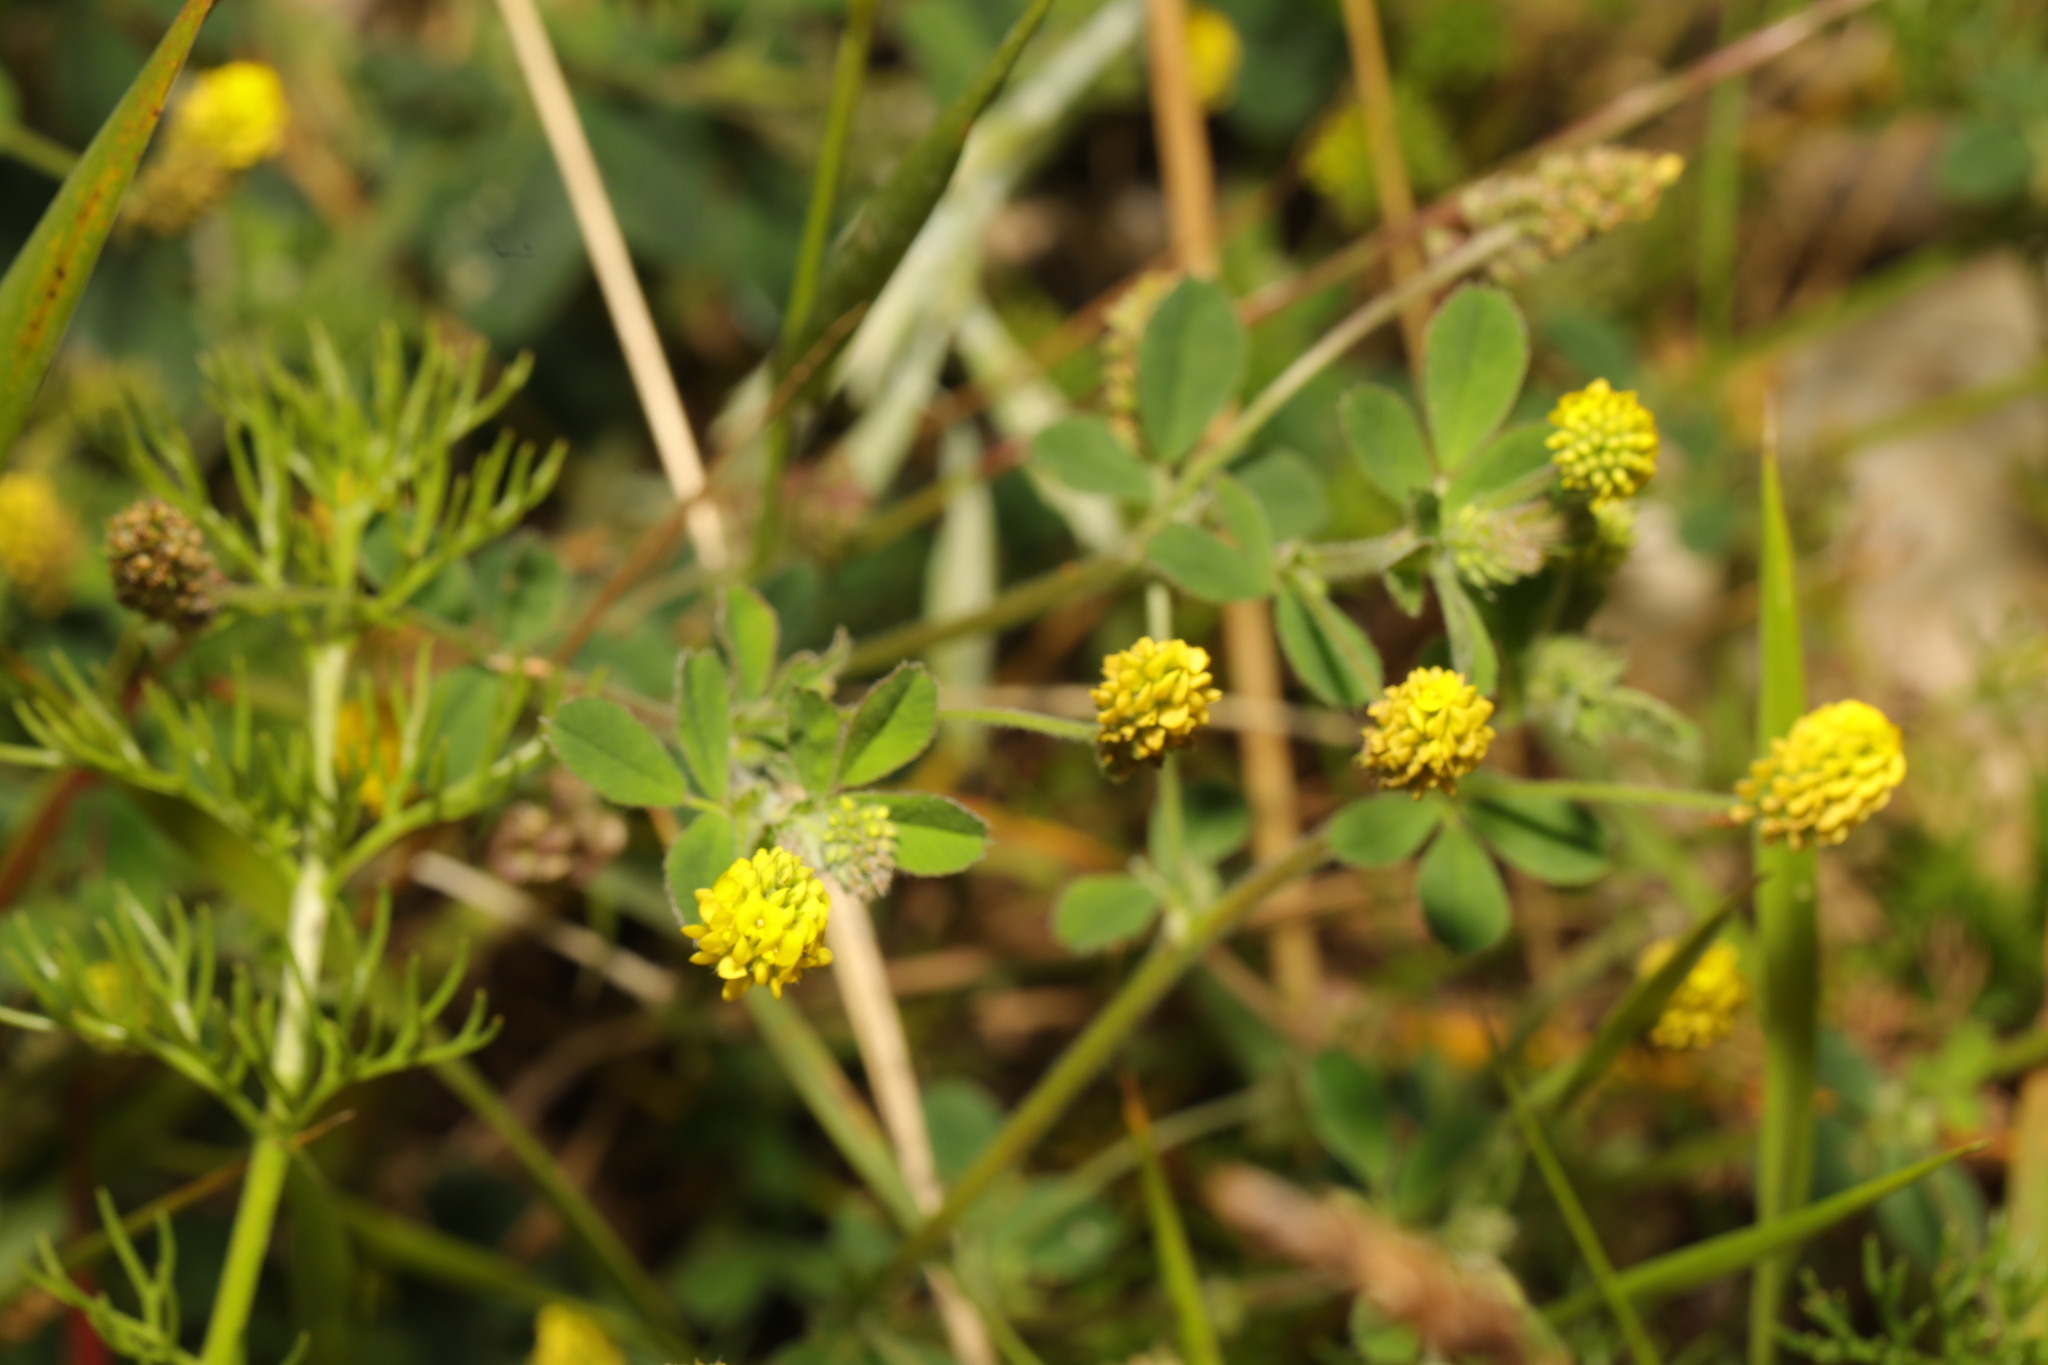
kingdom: Plantae
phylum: Tracheophyta
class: Magnoliopsida
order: Fabales
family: Fabaceae
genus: Medicago
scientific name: Medicago lupulina
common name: Black medick
